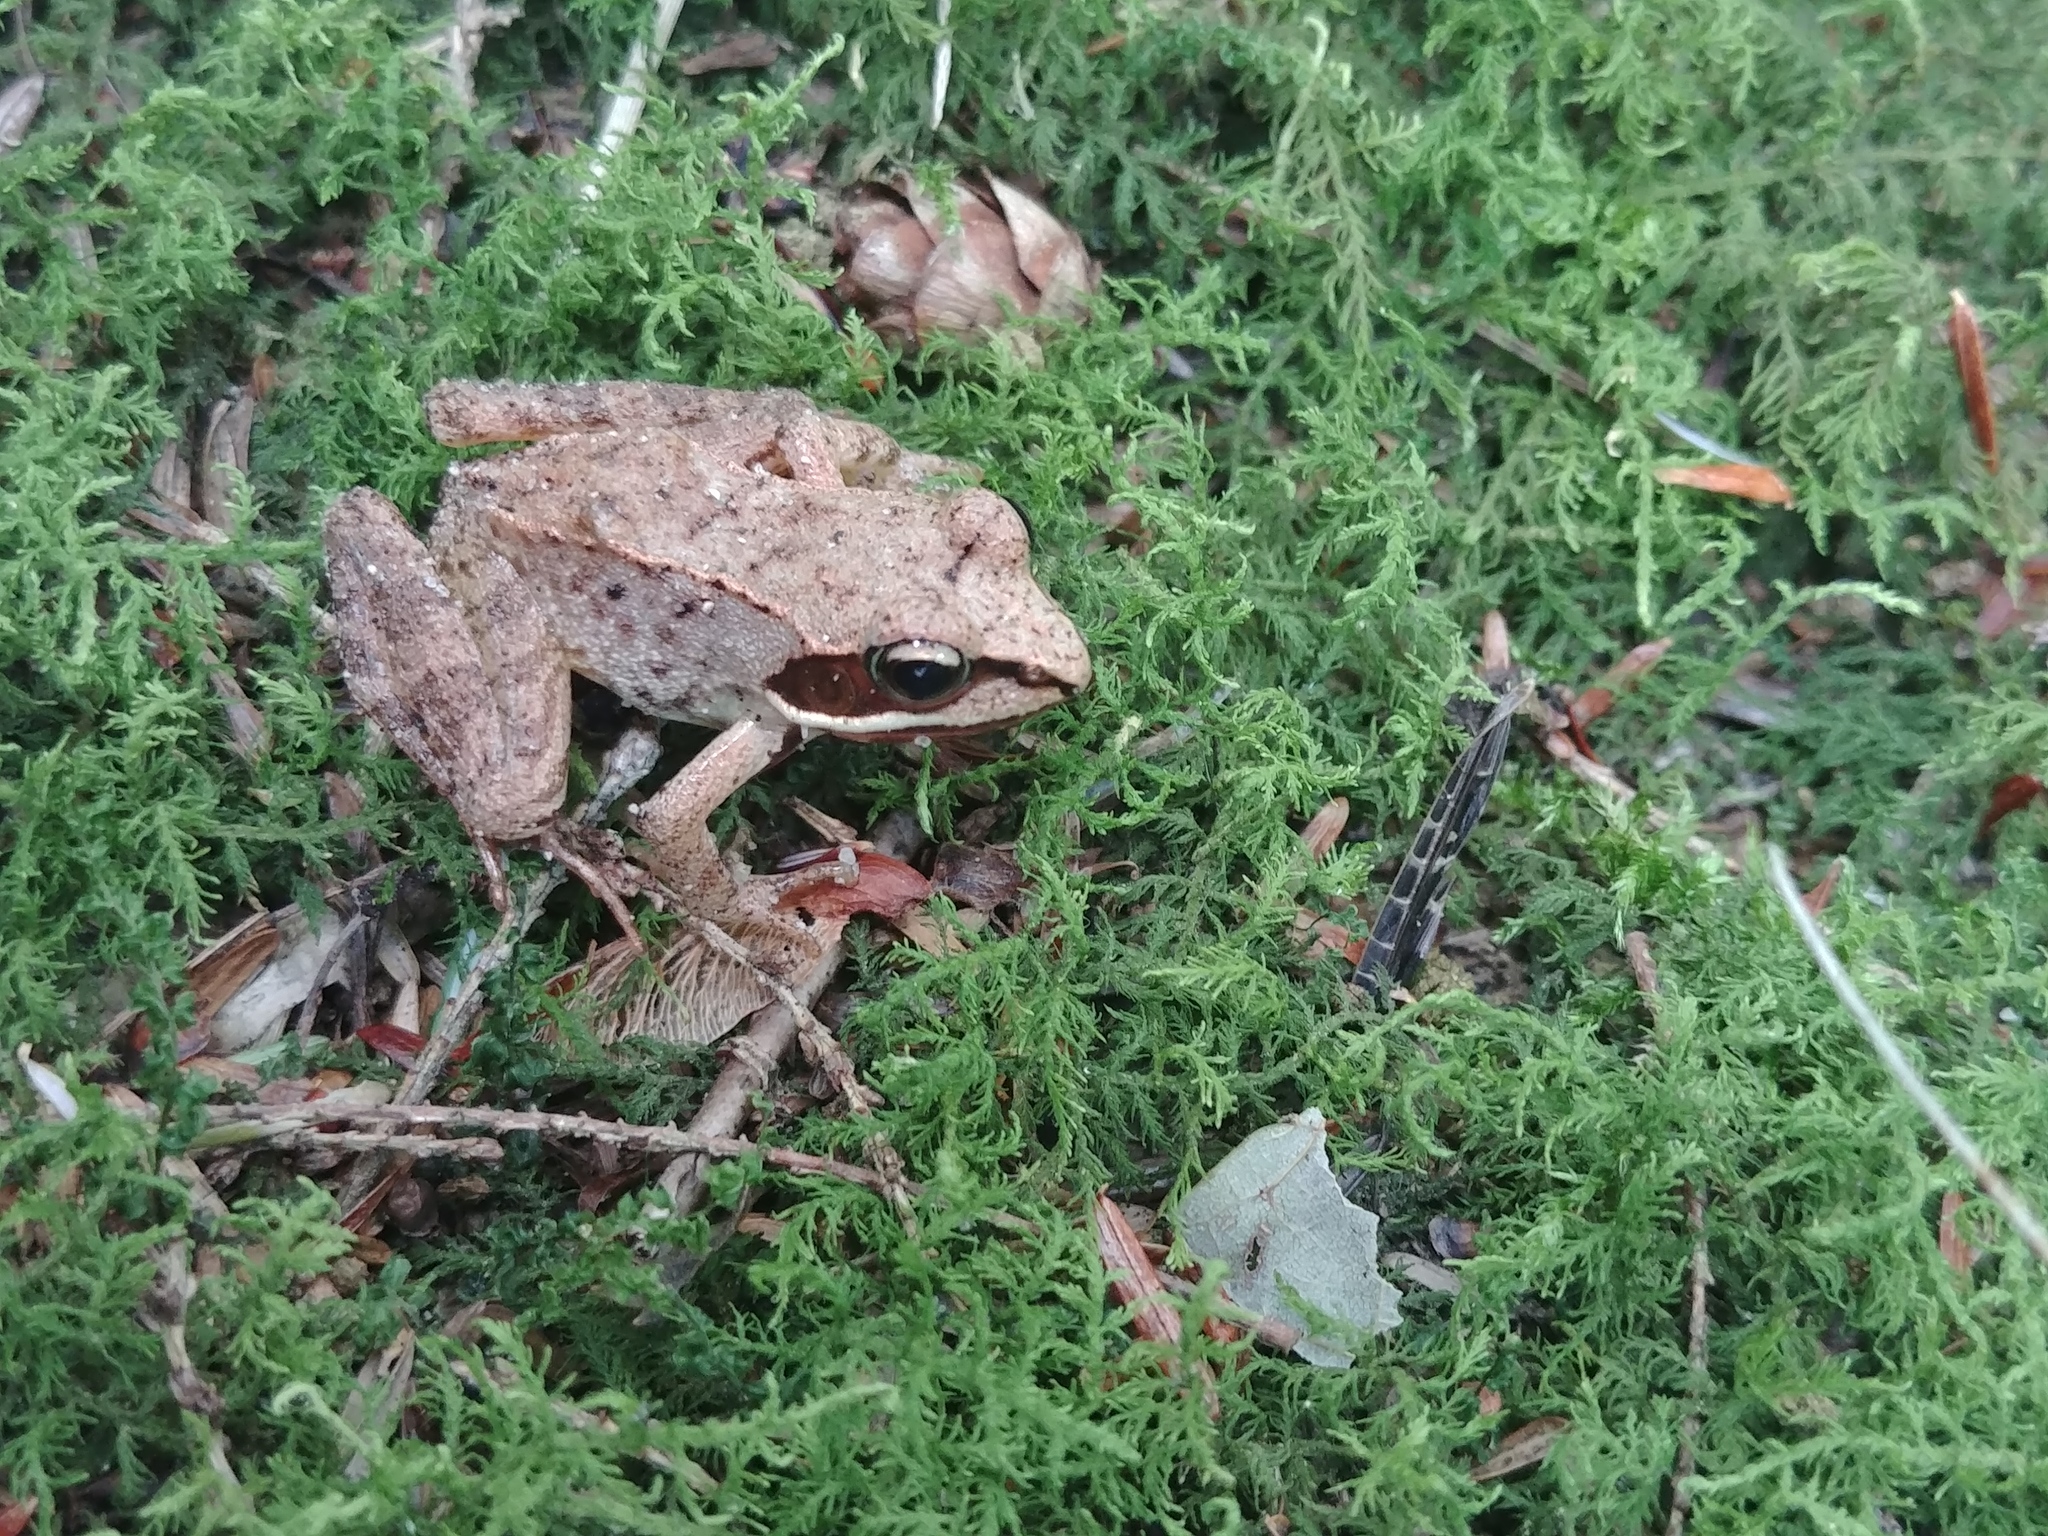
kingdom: Animalia
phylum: Chordata
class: Amphibia
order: Anura
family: Ranidae
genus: Lithobates
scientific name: Lithobates sylvaticus
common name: Wood frog
